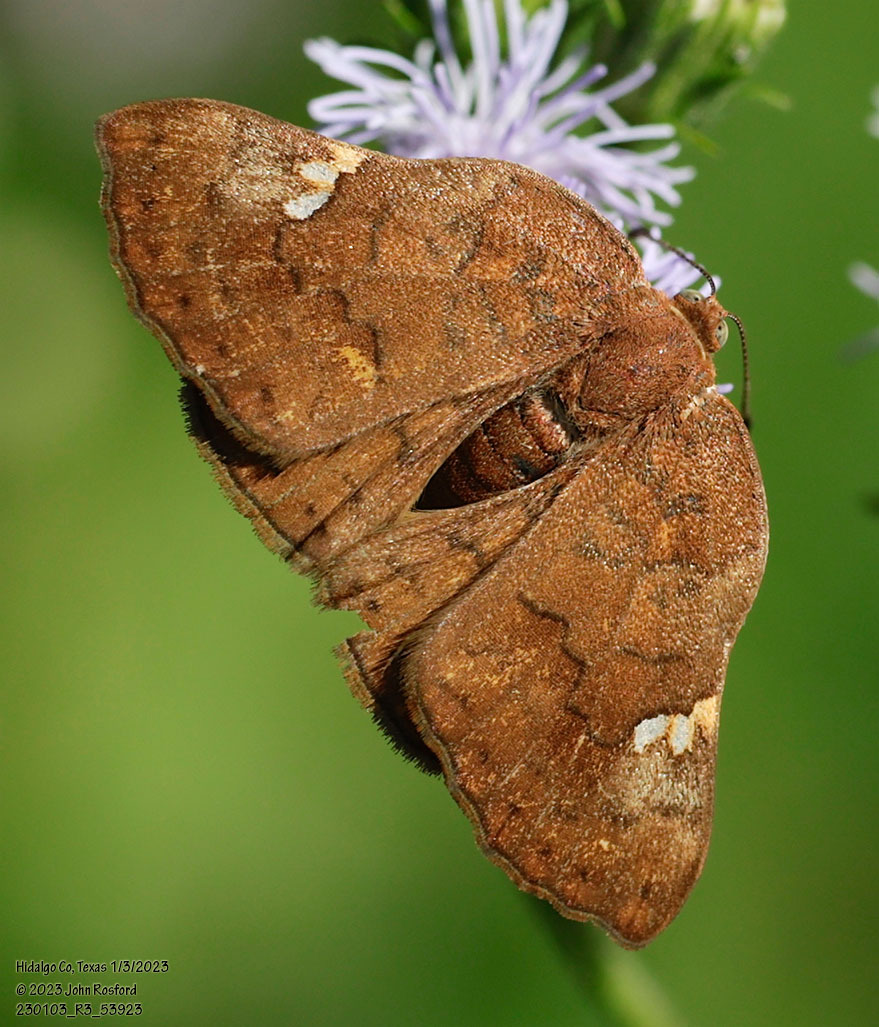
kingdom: Animalia
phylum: Arthropoda
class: Insecta
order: Lepidoptera
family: Riodinidae
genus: Curvie
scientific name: Curvie emesia
